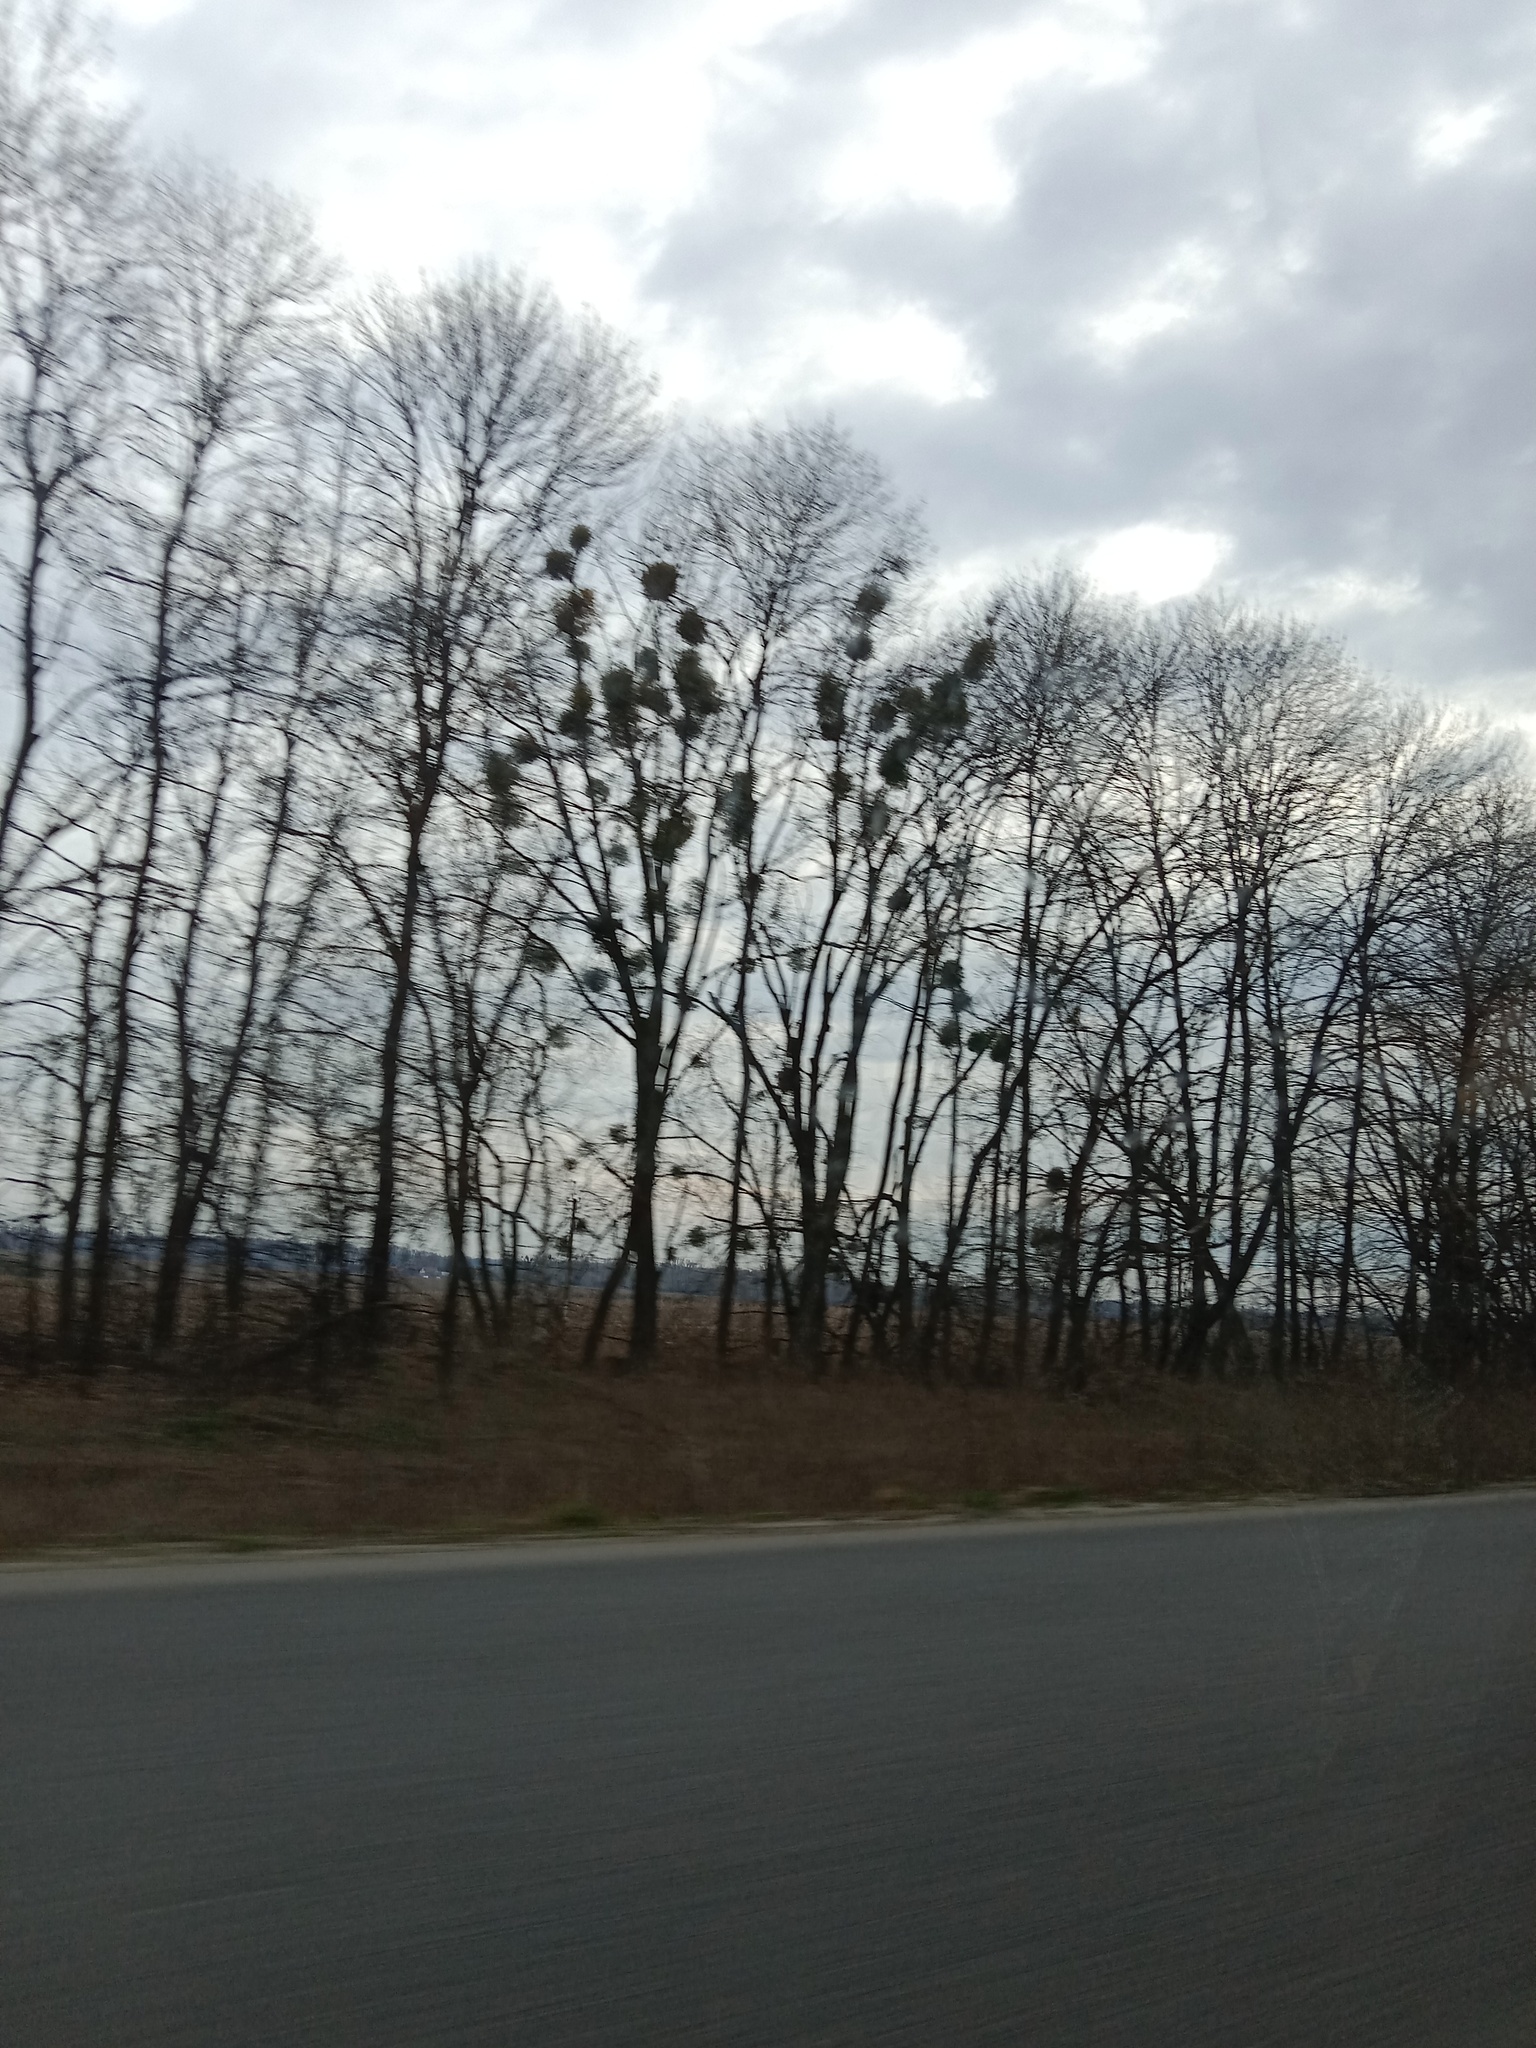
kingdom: Plantae
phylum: Tracheophyta
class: Magnoliopsida
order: Santalales
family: Viscaceae
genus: Viscum
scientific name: Viscum album
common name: Mistletoe
